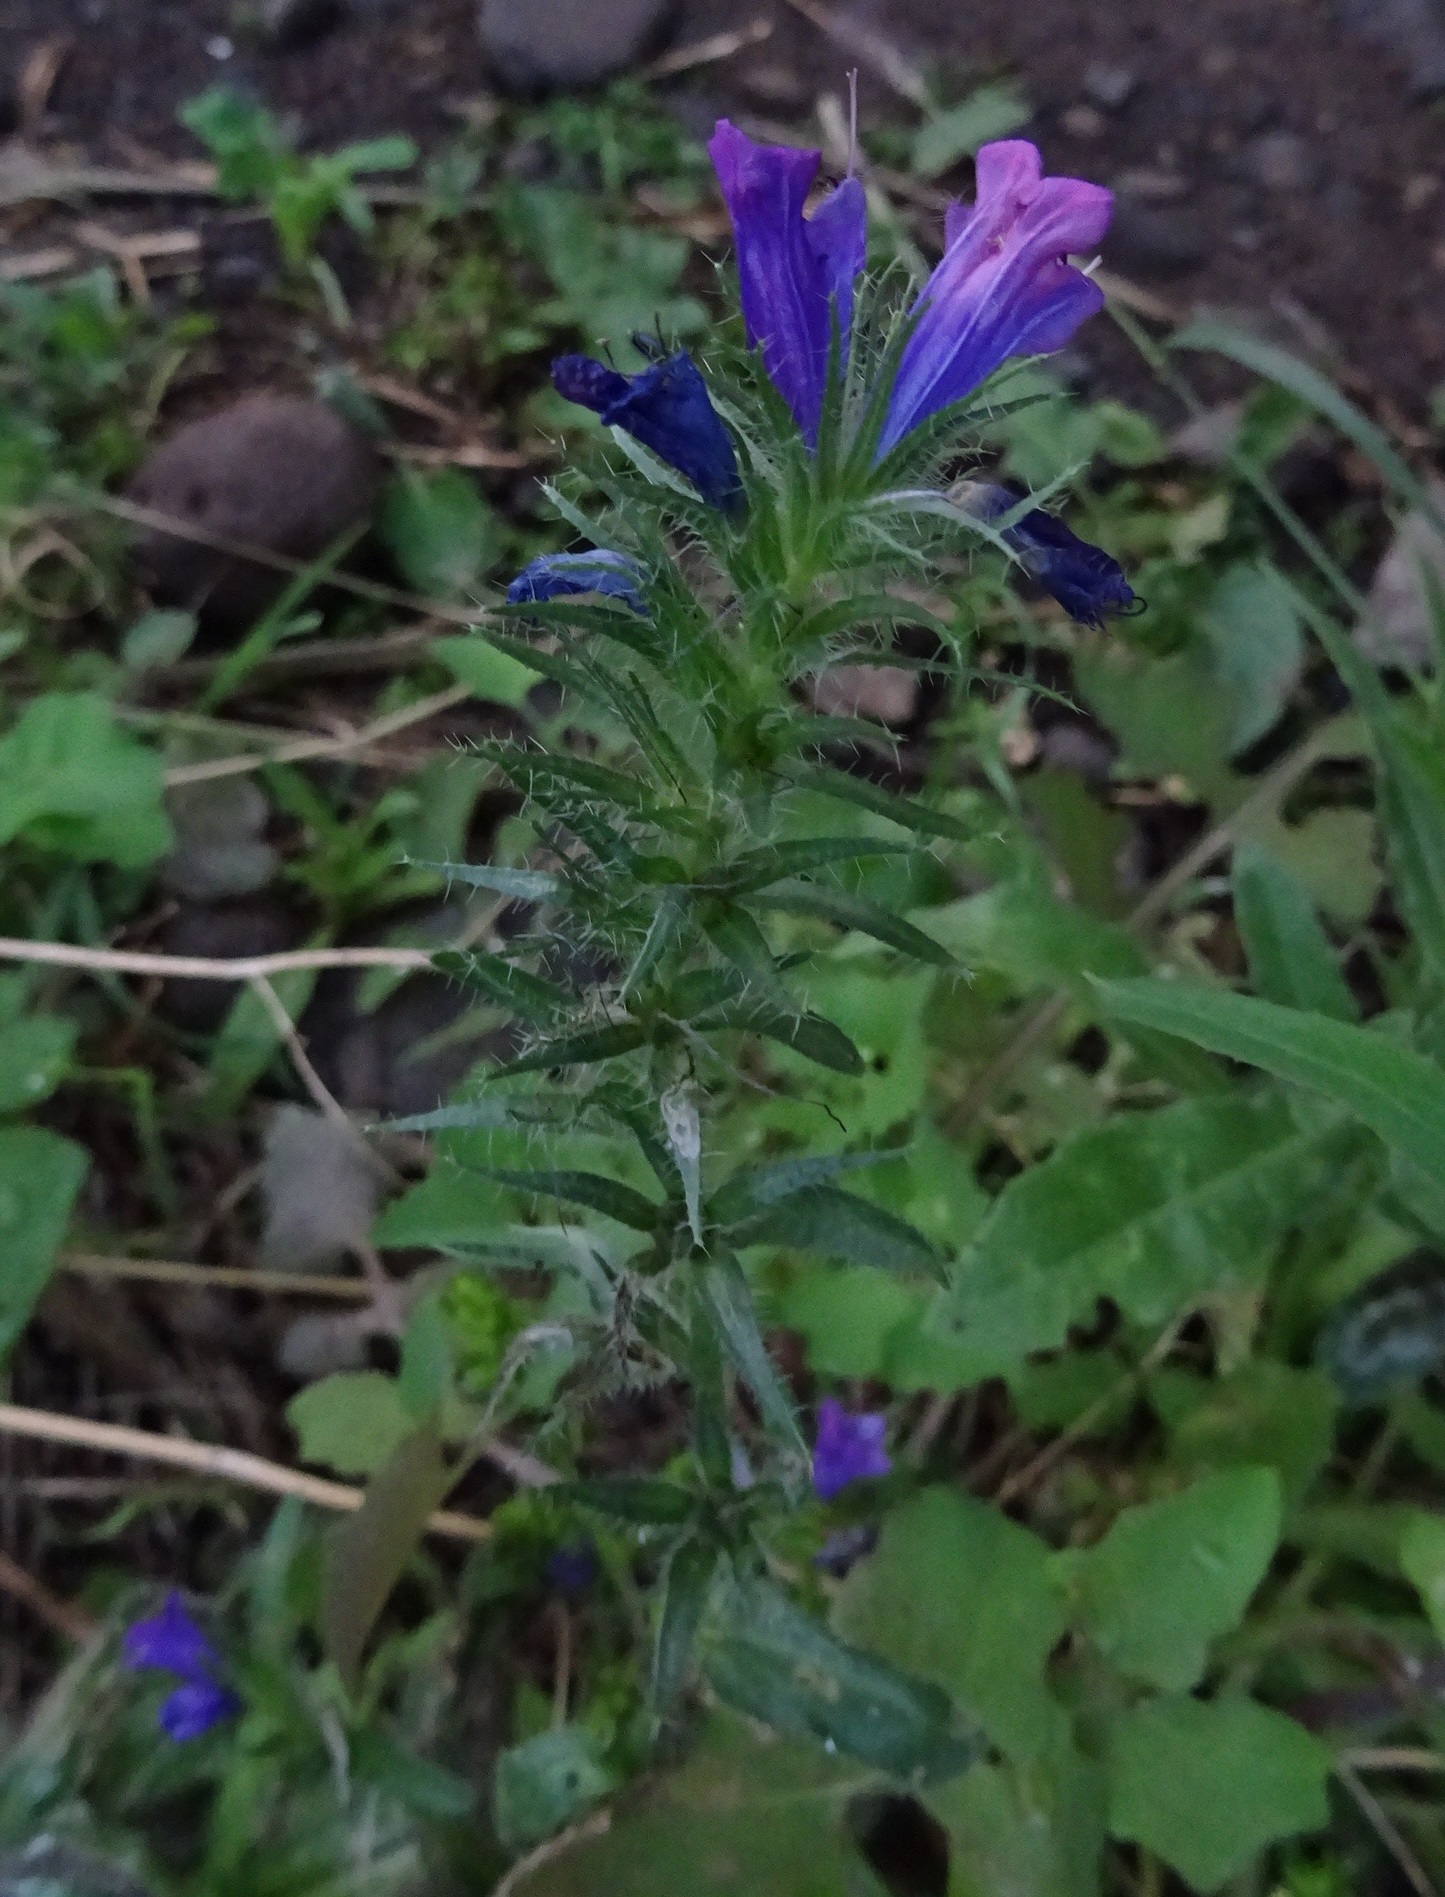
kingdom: Plantae
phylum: Tracheophyta
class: Magnoliopsida
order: Boraginales
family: Boraginaceae
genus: Echium
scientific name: Echium plantagineum
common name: Purple viper's-bugloss
